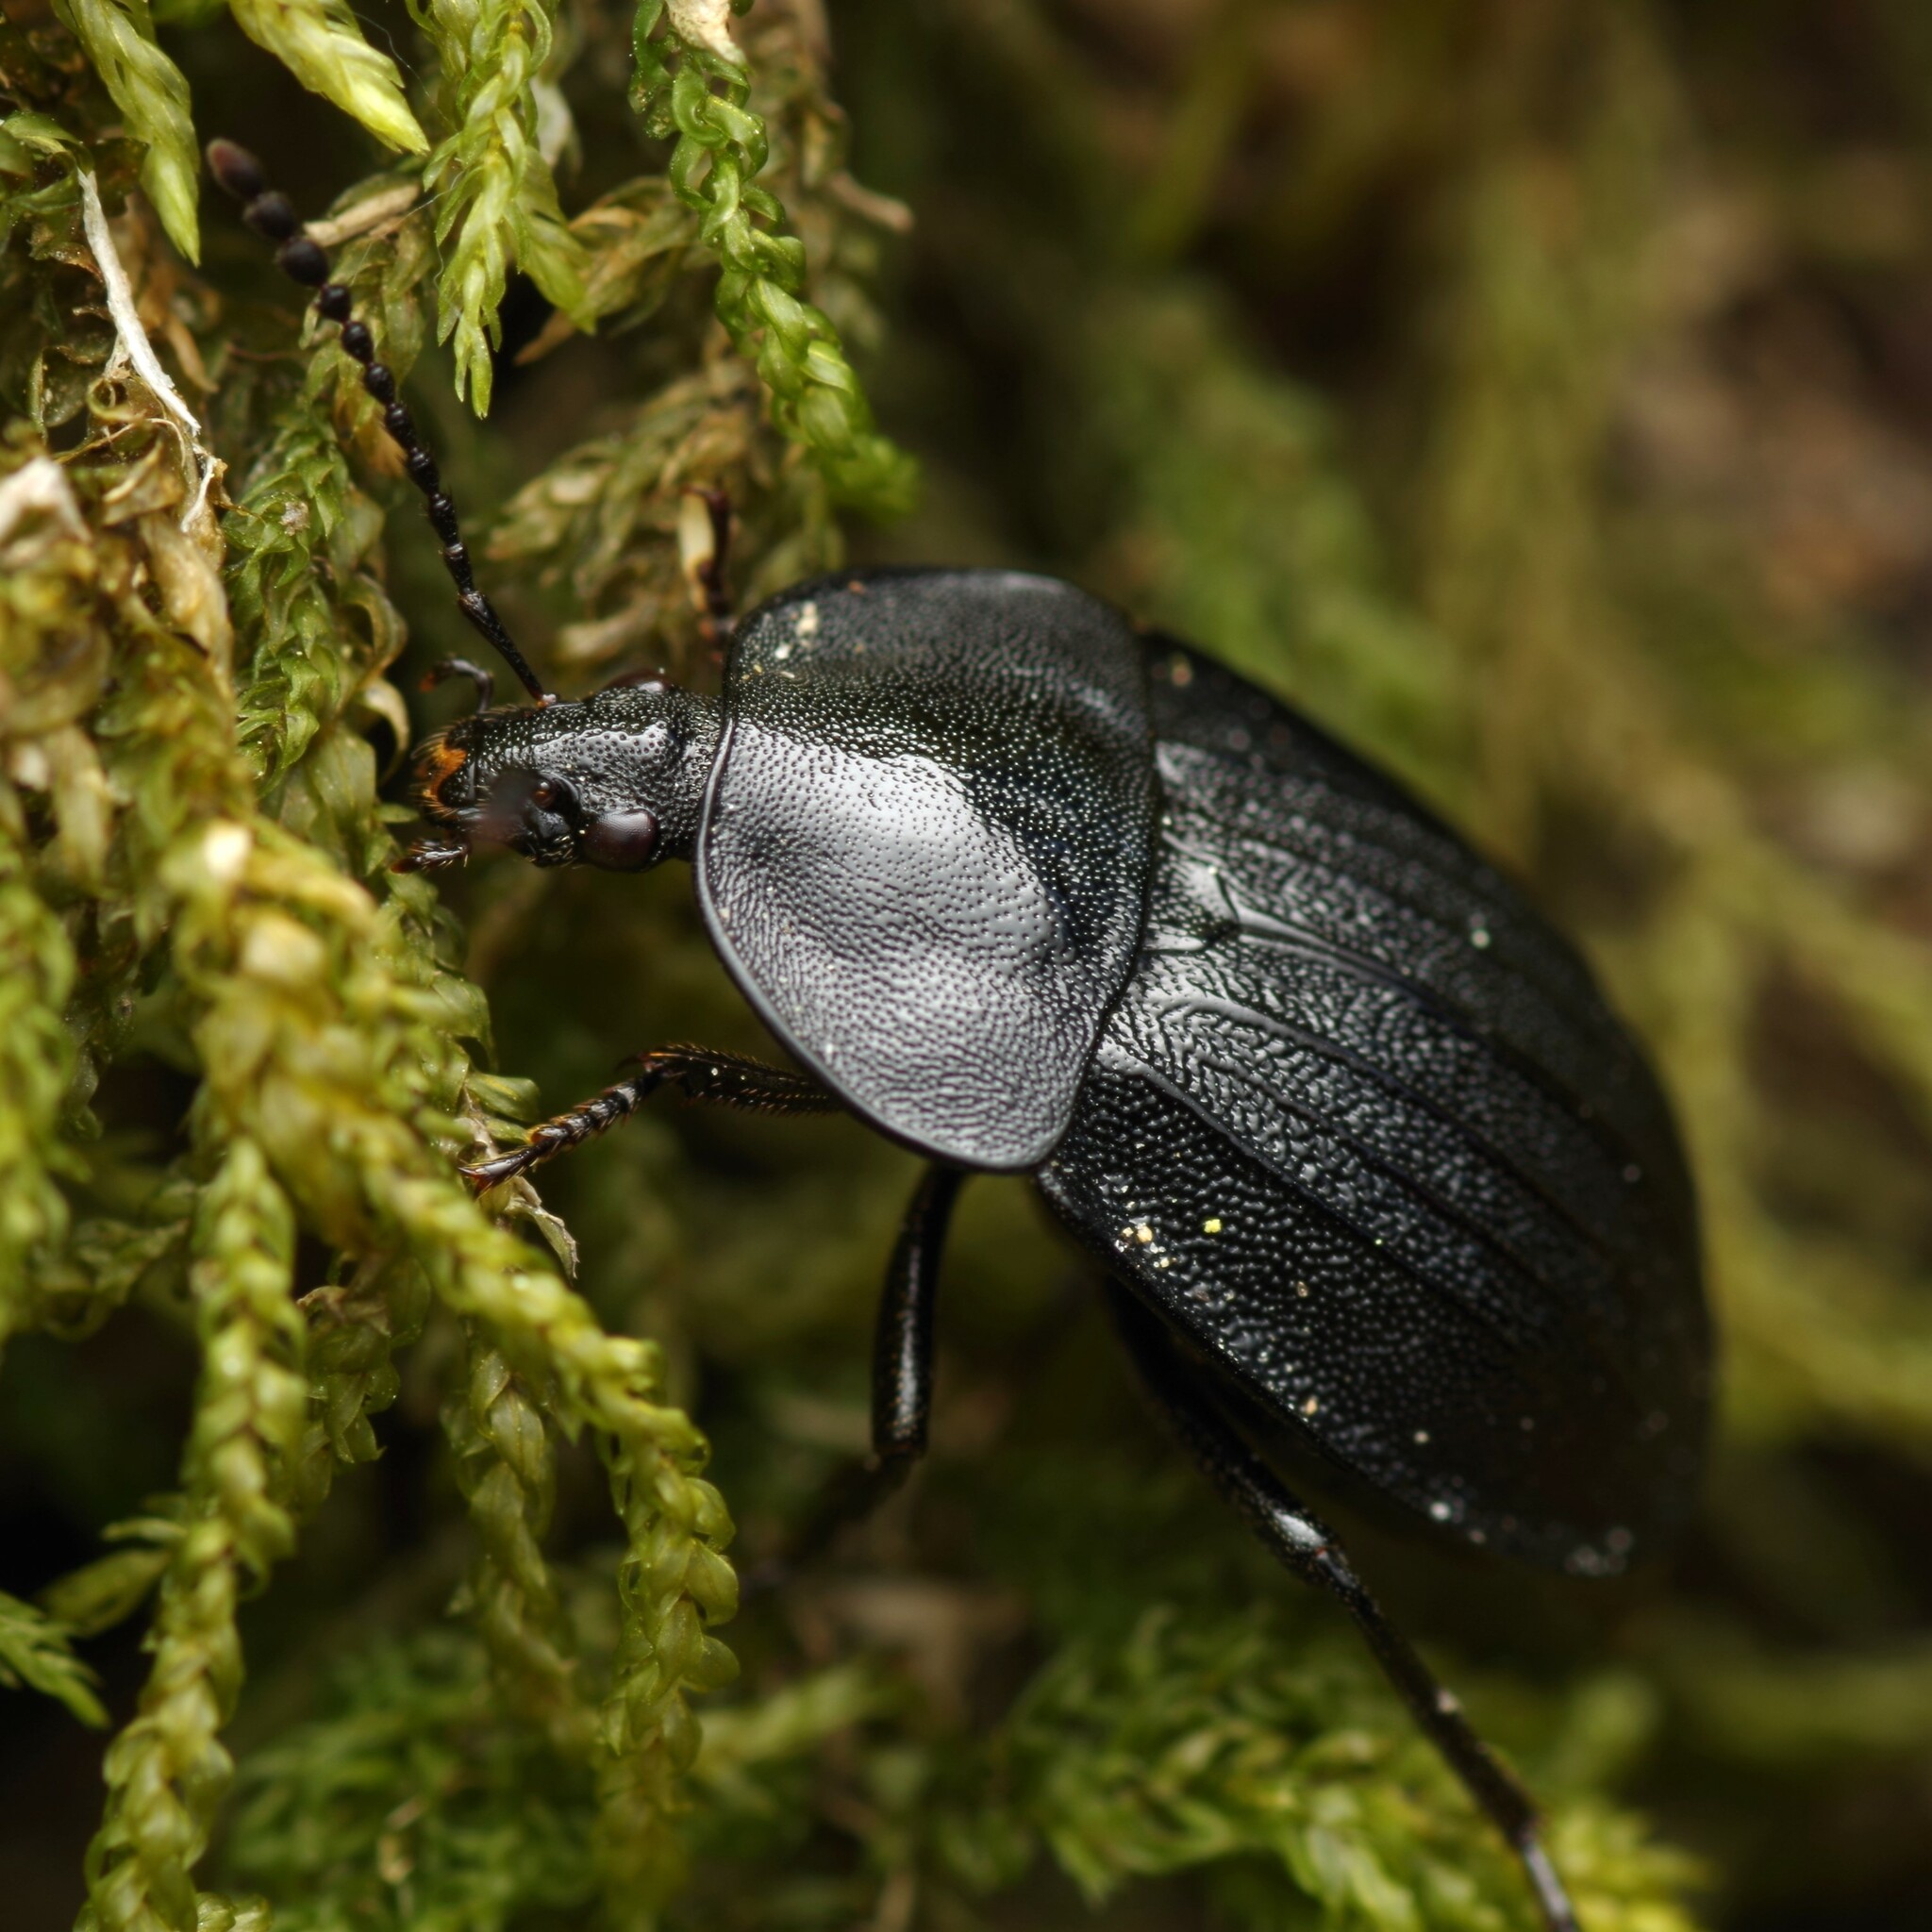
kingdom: Animalia
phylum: Arthropoda
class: Insecta
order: Coleoptera
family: Staphylinidae
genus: Silpha
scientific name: Silpha atrata
